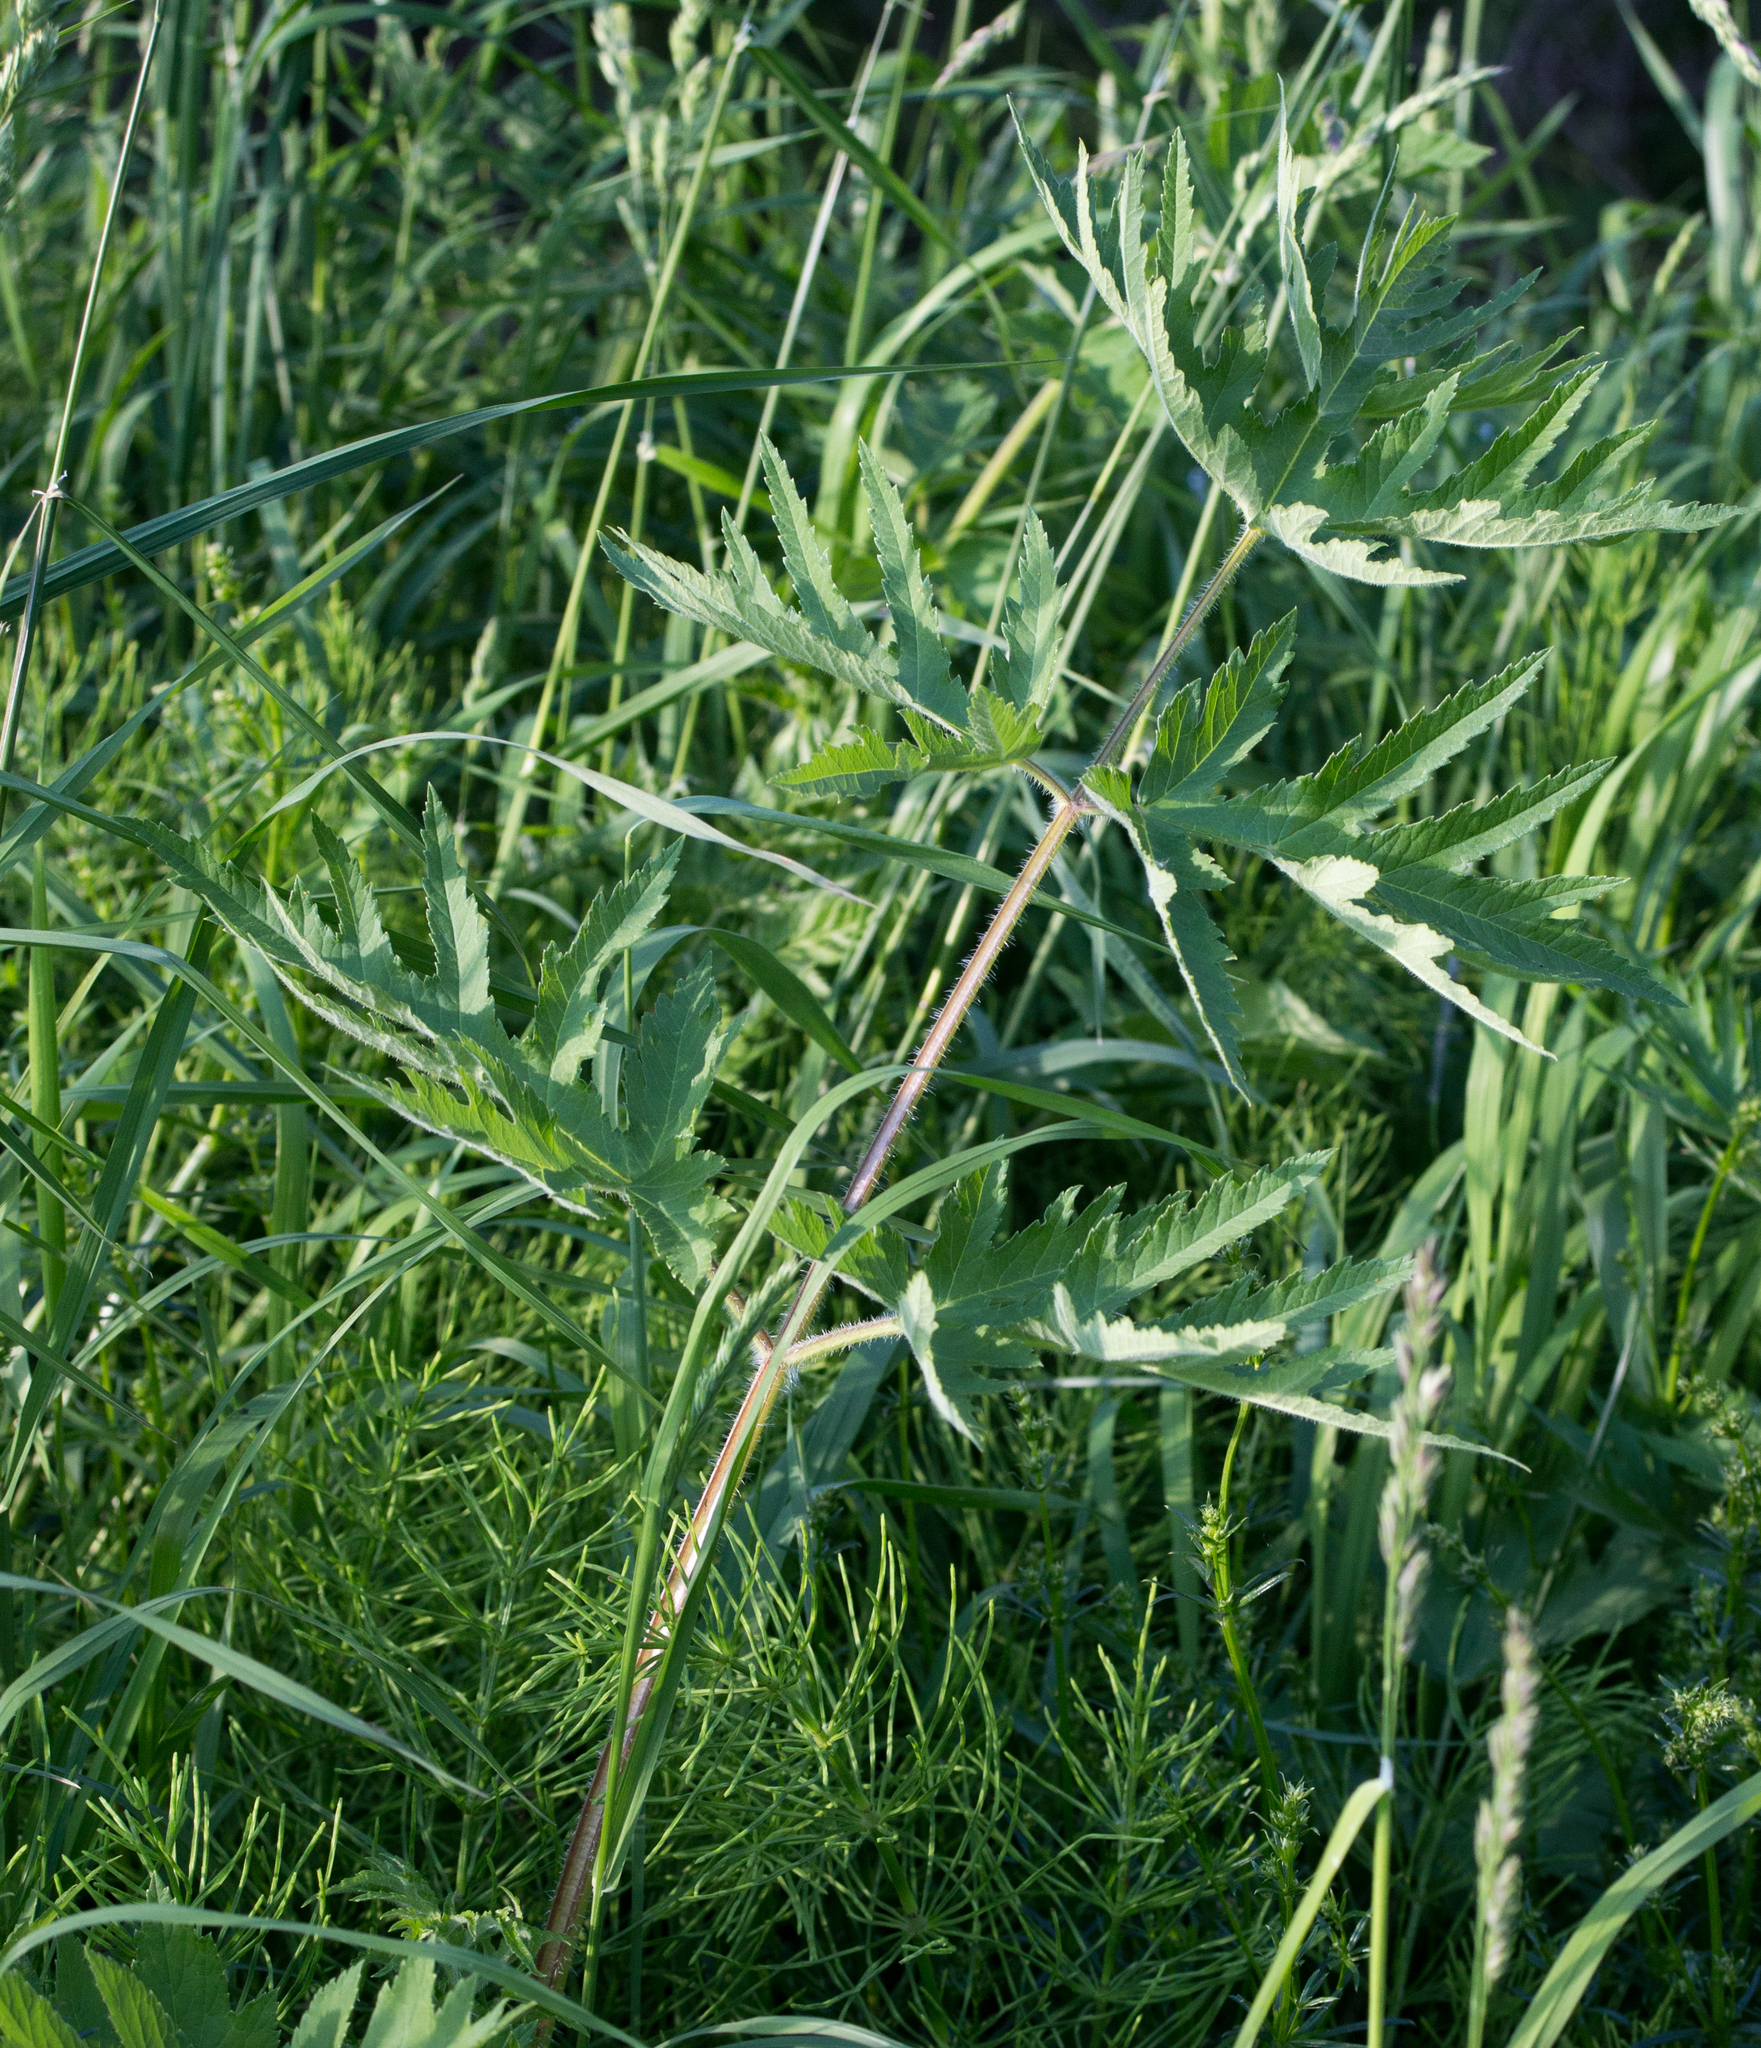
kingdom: Plantae
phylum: Tracheophyta
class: Magnoliopsida
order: Apiales
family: Apiaceae
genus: Heracleum
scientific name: Heracleum sphondylium
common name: Hogweed
